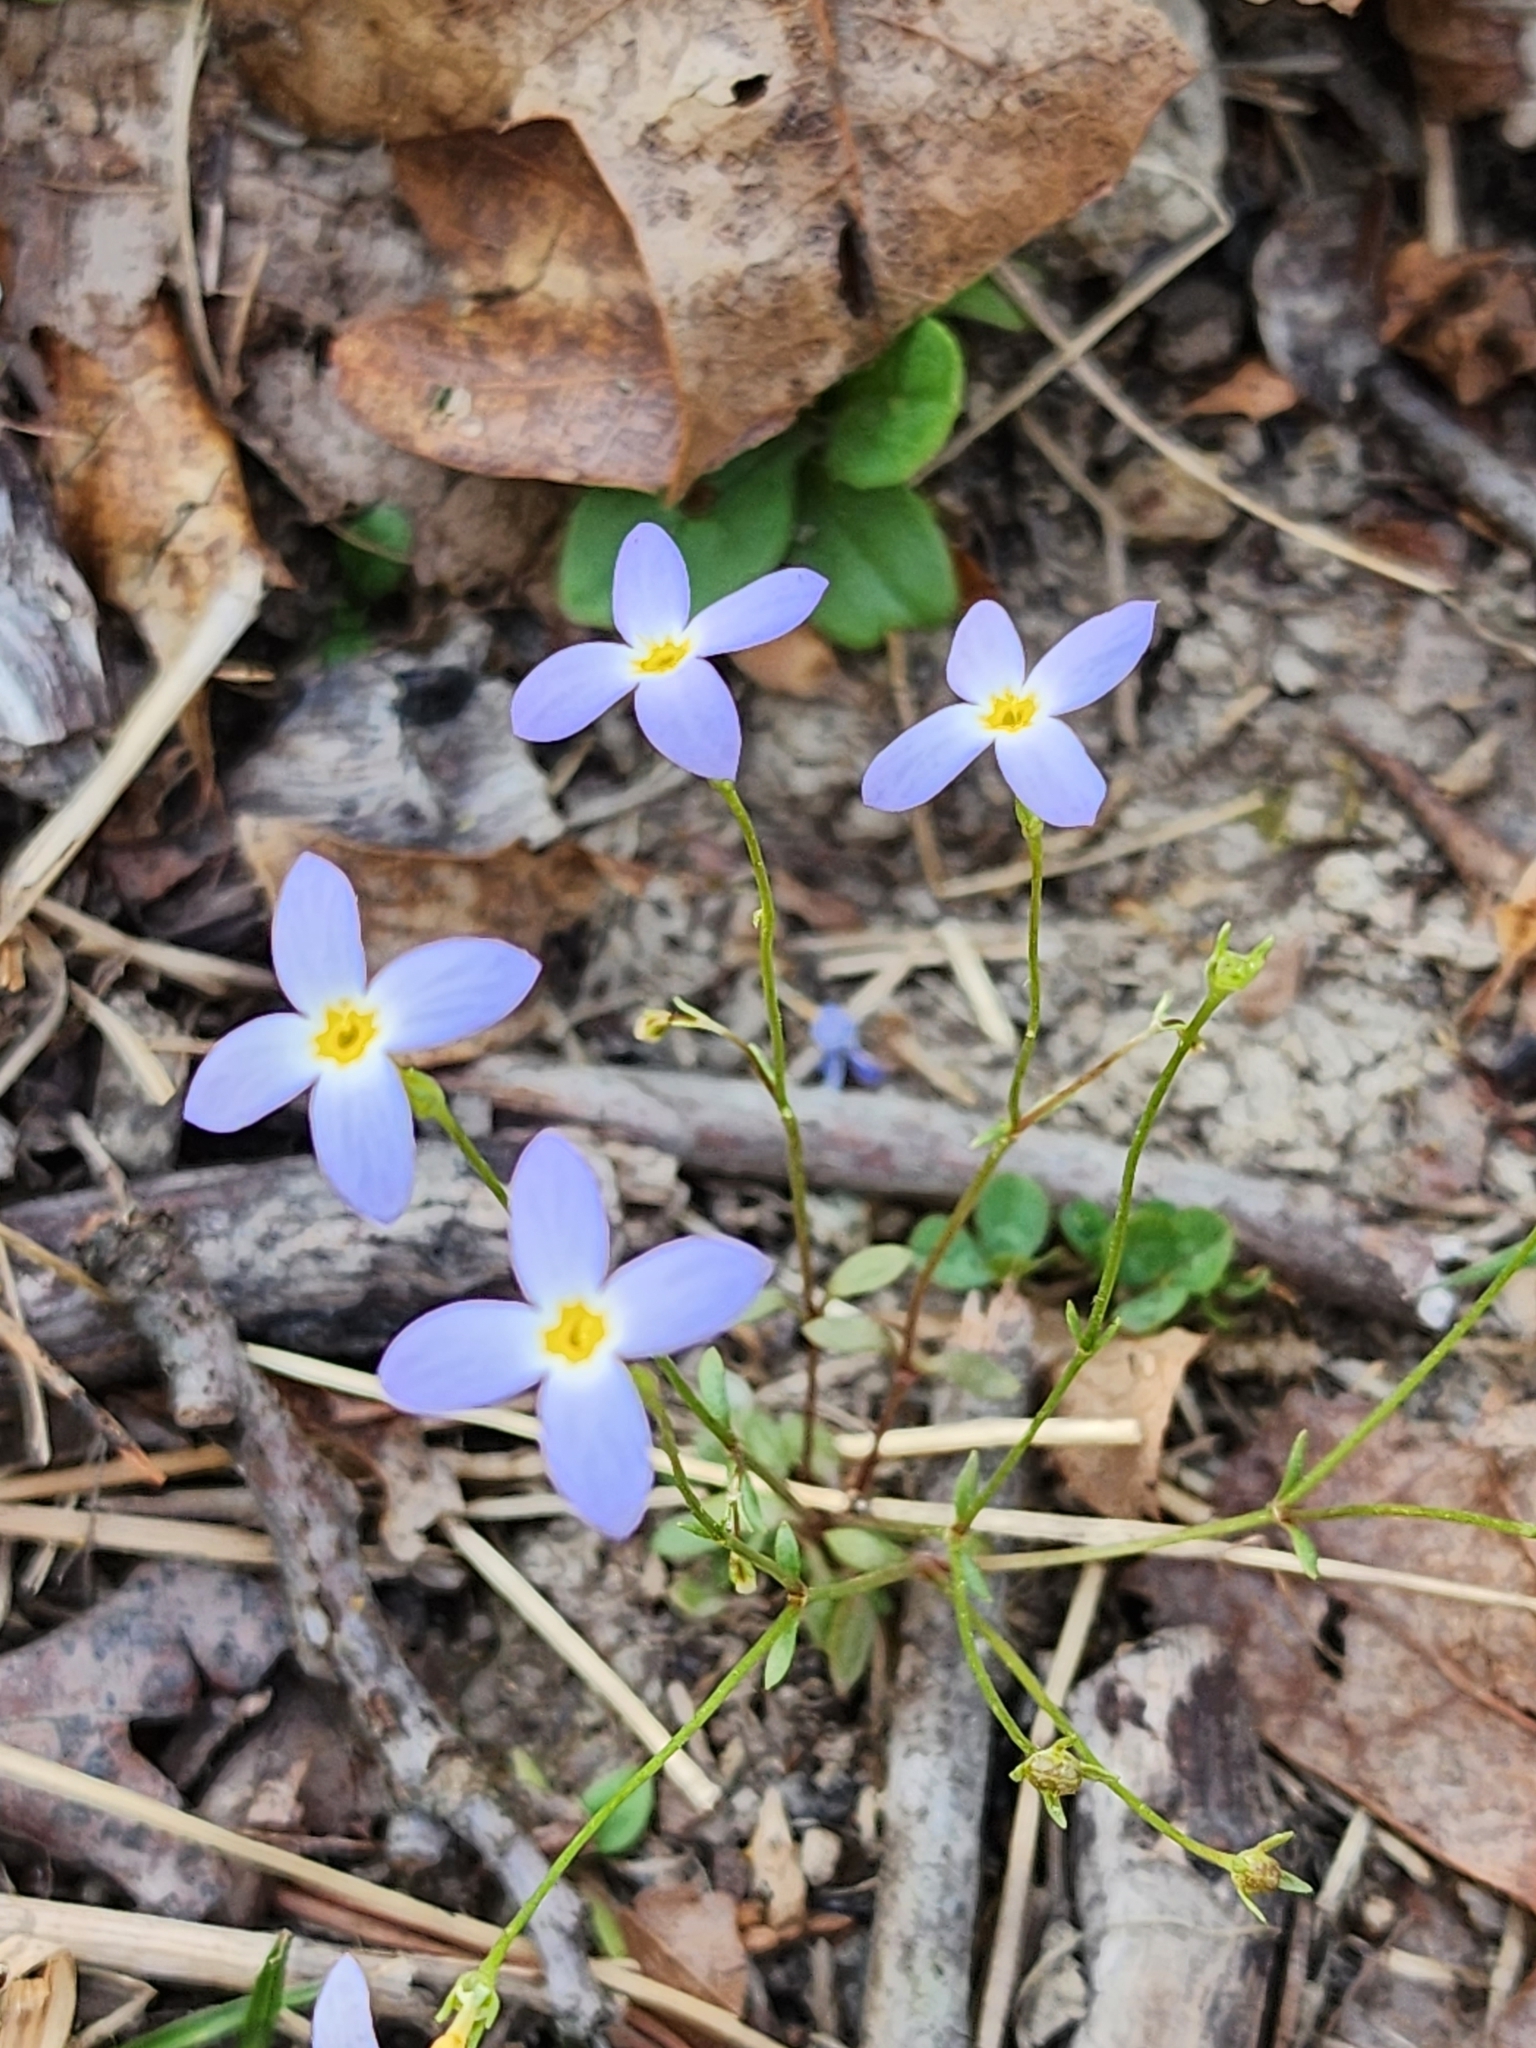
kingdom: Plantae
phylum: Tracheophyta
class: Magnoliopsida
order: Gentianales
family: Rubiaceae
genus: Houstonia
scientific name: Houstonia caerulea
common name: Bluets
